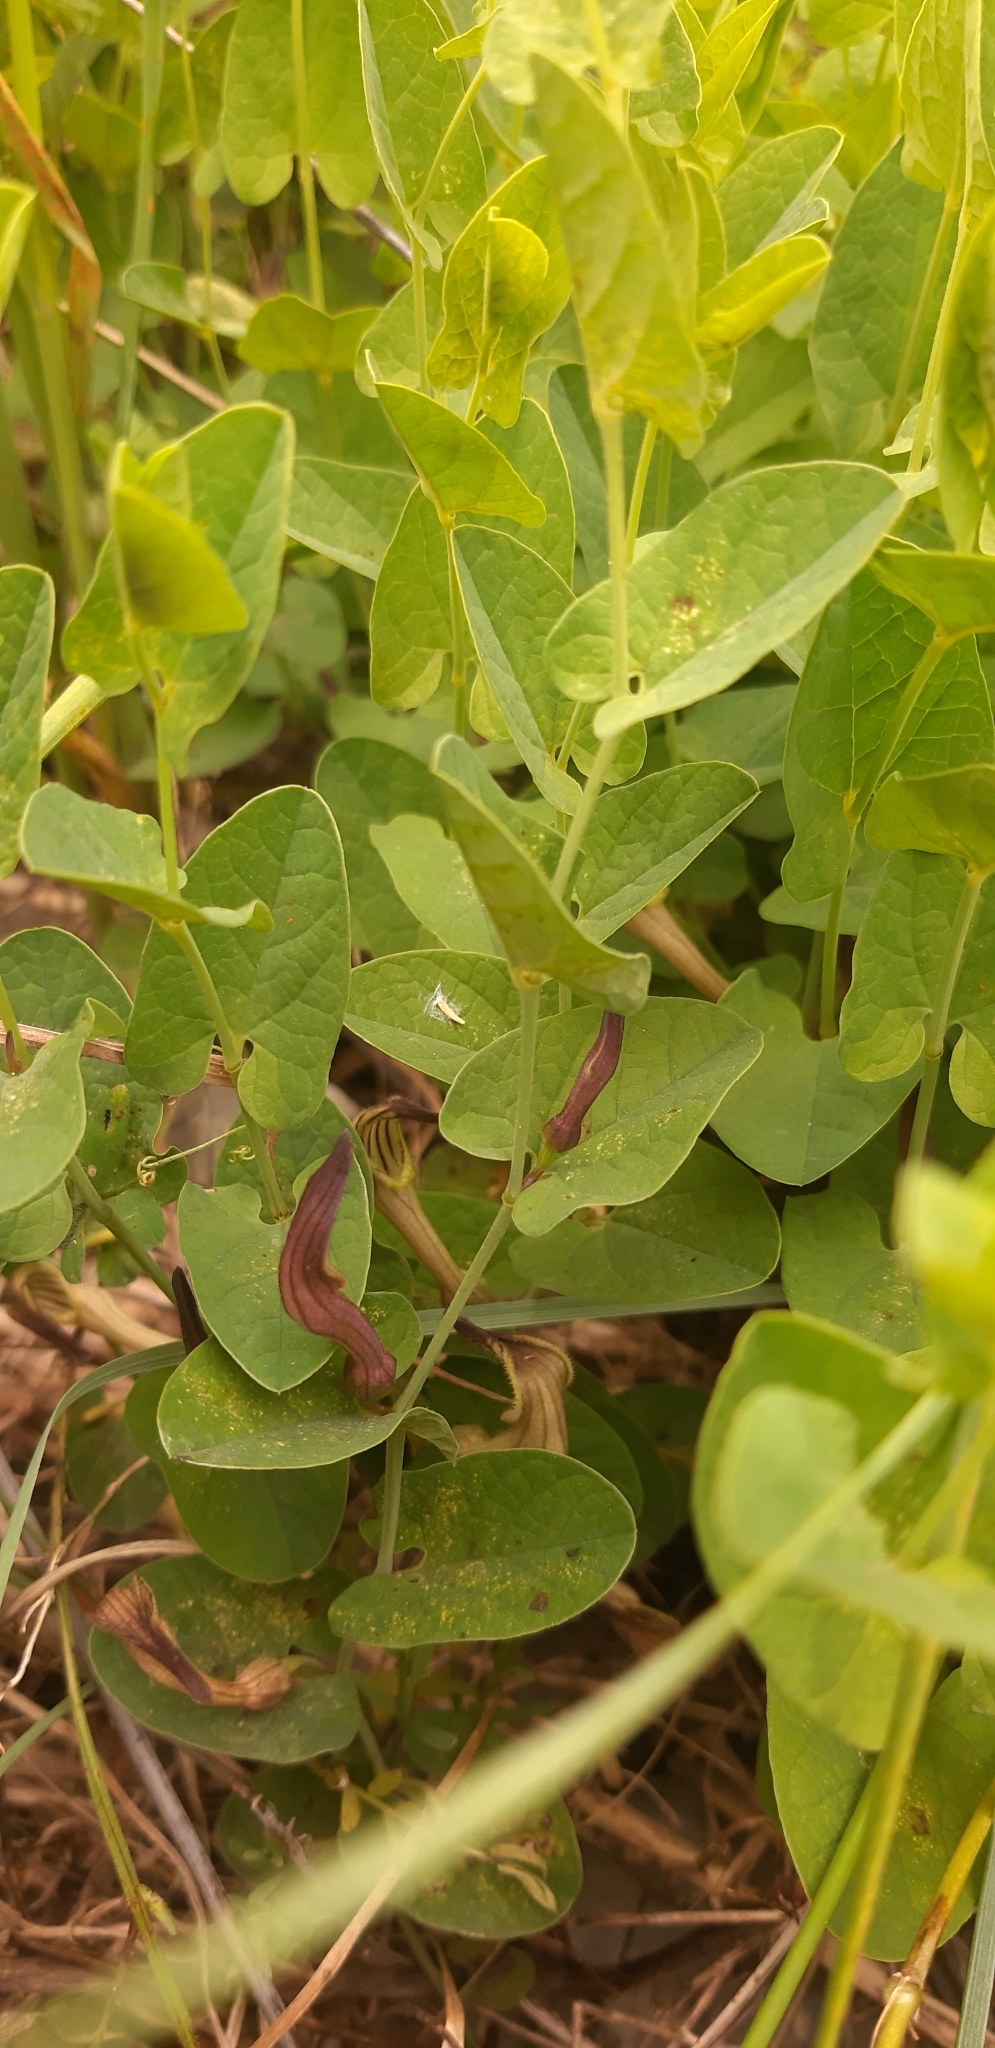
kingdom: Plantae
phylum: Tracheophyta
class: Magnoliopsida
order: Piperales
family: Aristolochiaceae
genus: Aristolochia
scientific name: Aristolochia clusii
